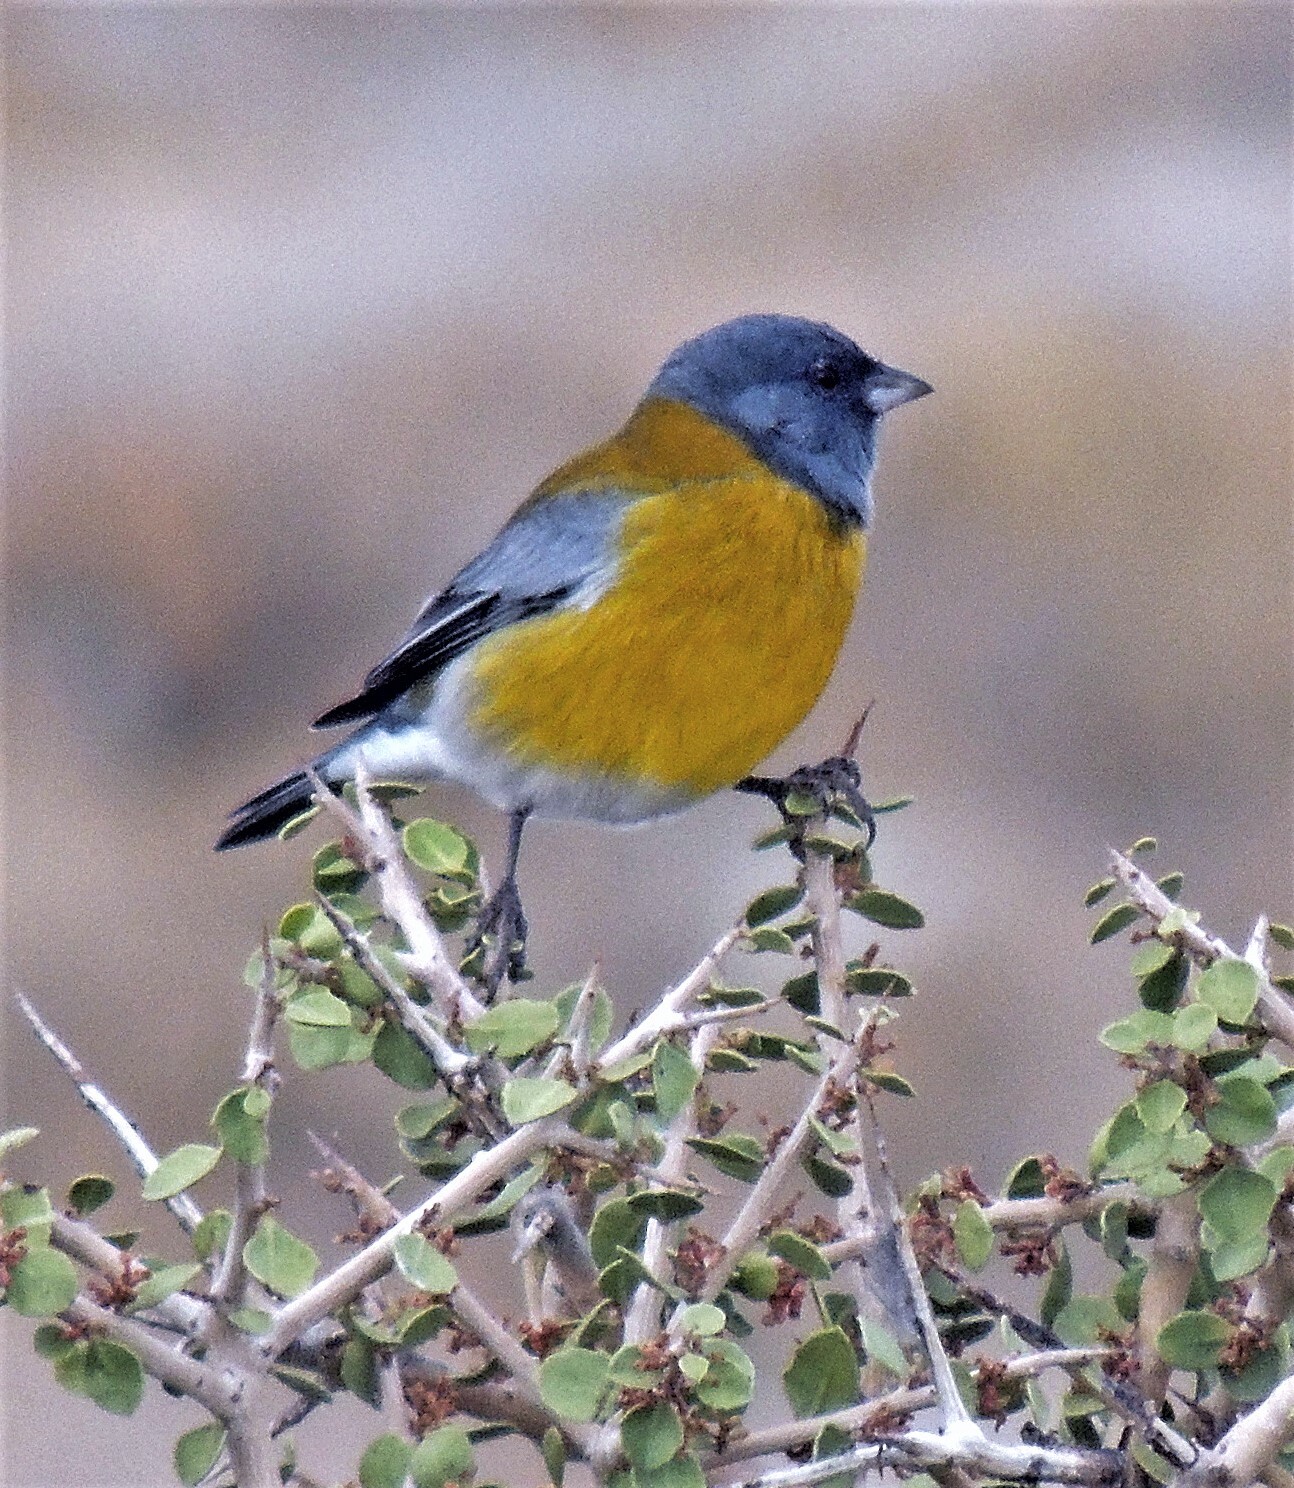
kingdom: Animalia
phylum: Chordata
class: Aves
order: Passeriformes
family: Thraupidae
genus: Phrygilus
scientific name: Phrygilus gayi
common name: Grey-hooded sierra finch
